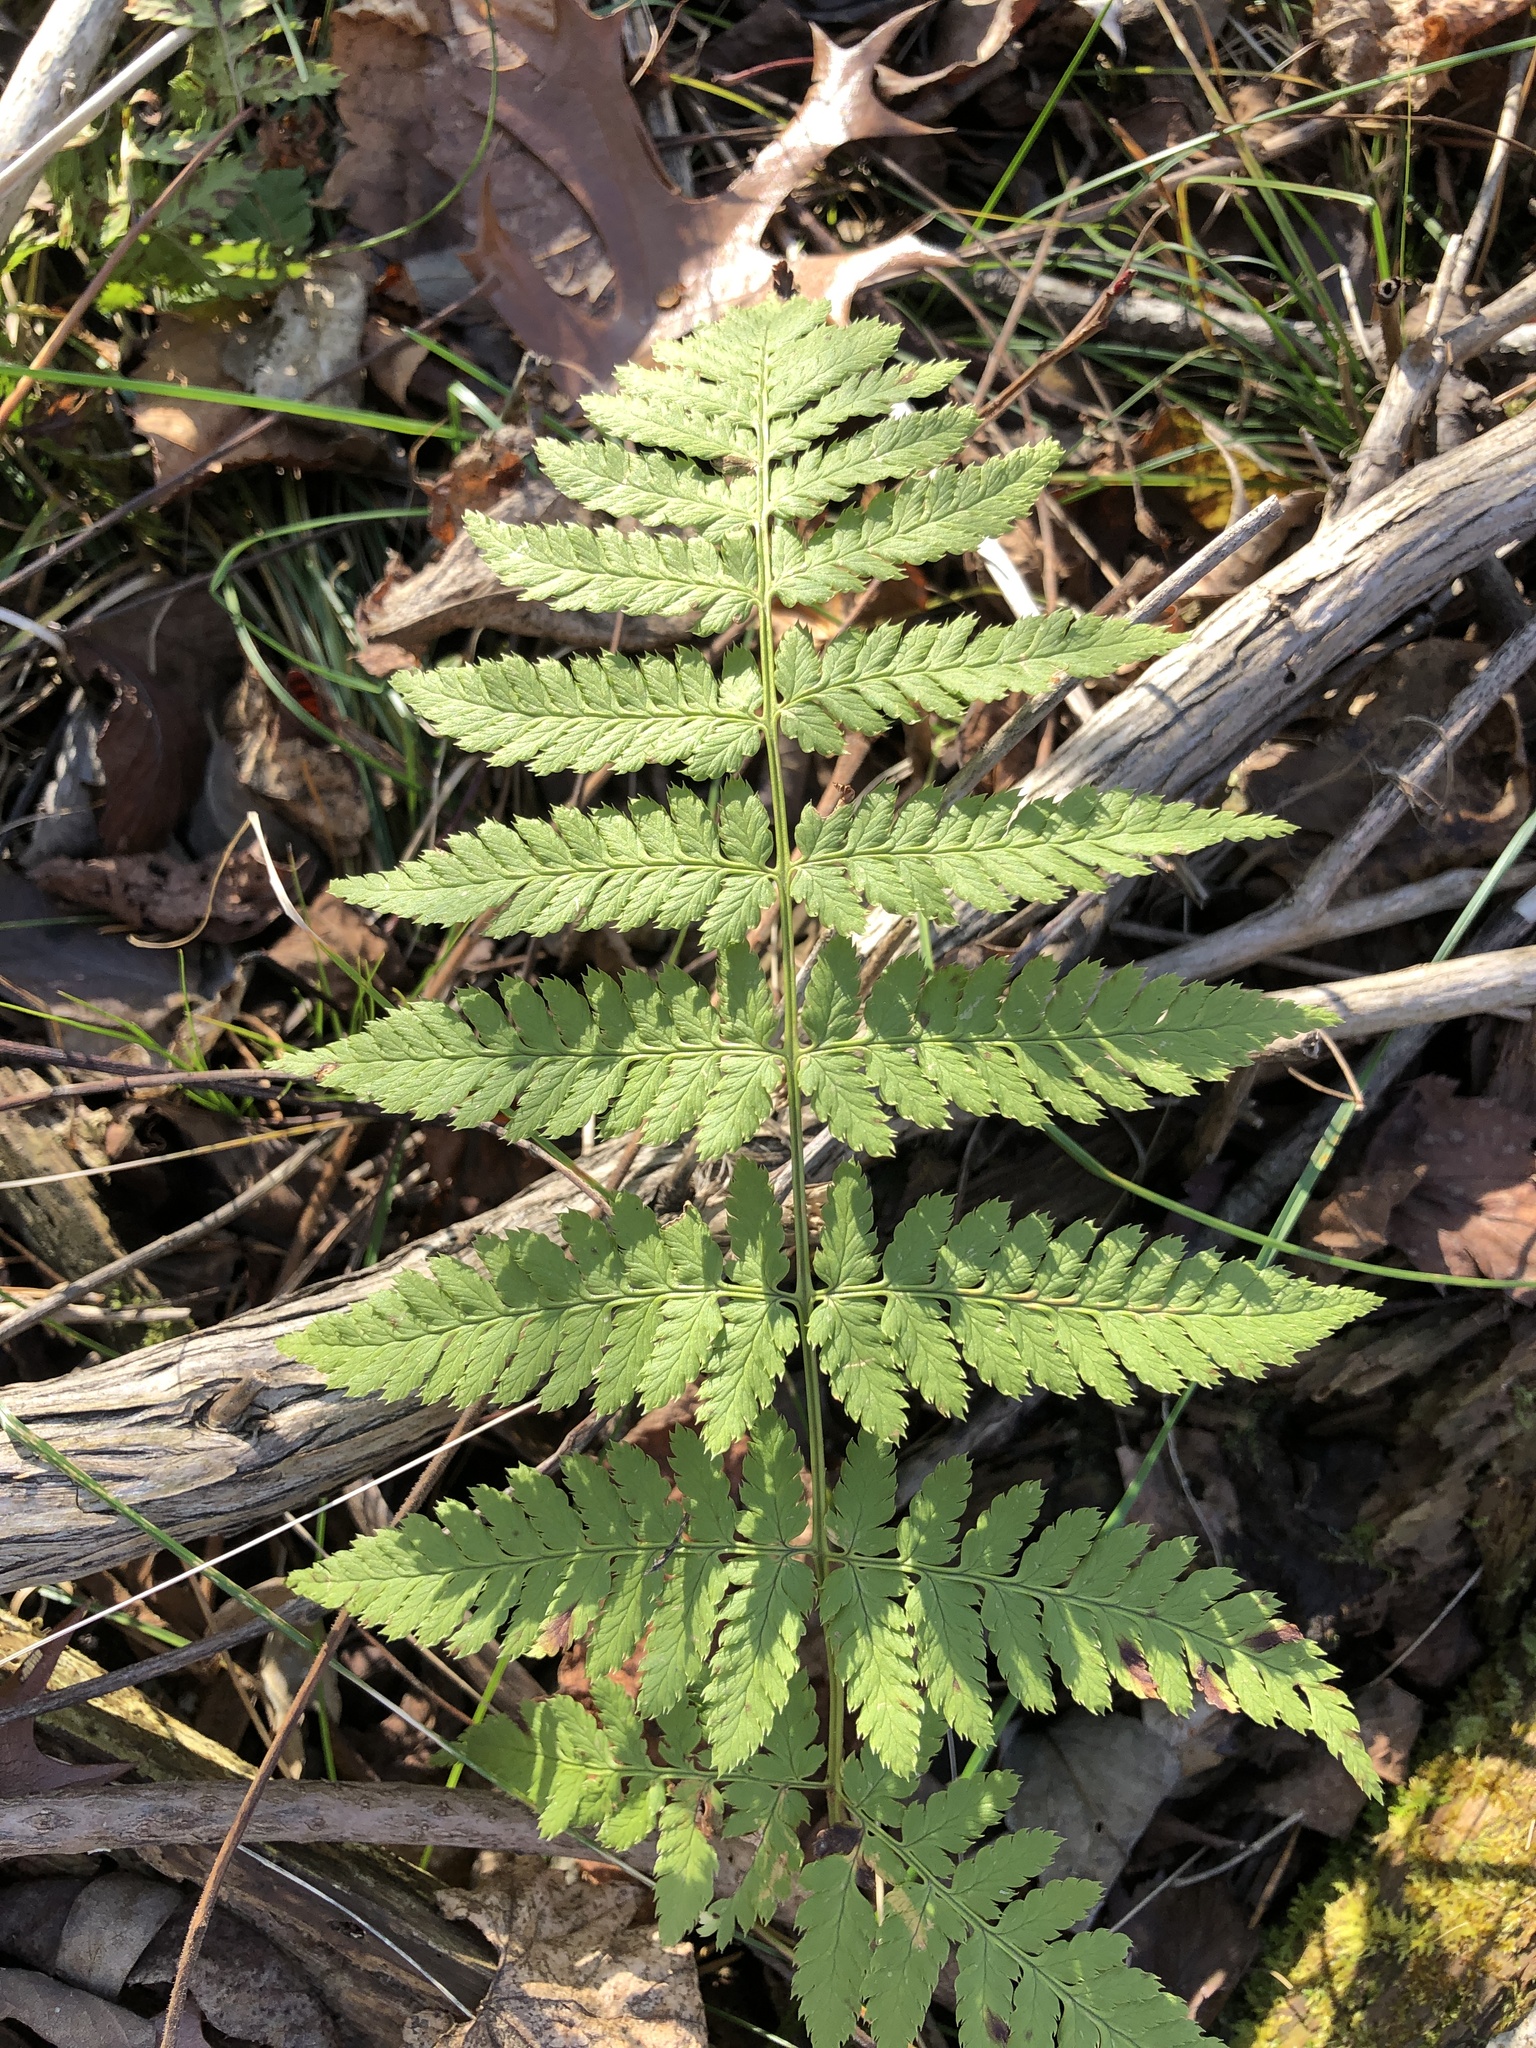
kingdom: Plantae
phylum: Tracheophyta
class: Polypodiopsida
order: Polypodiales
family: Dryopteridaceae
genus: Dryopteris
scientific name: Dryopteris carthusiana
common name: Narrow buckler-fern
